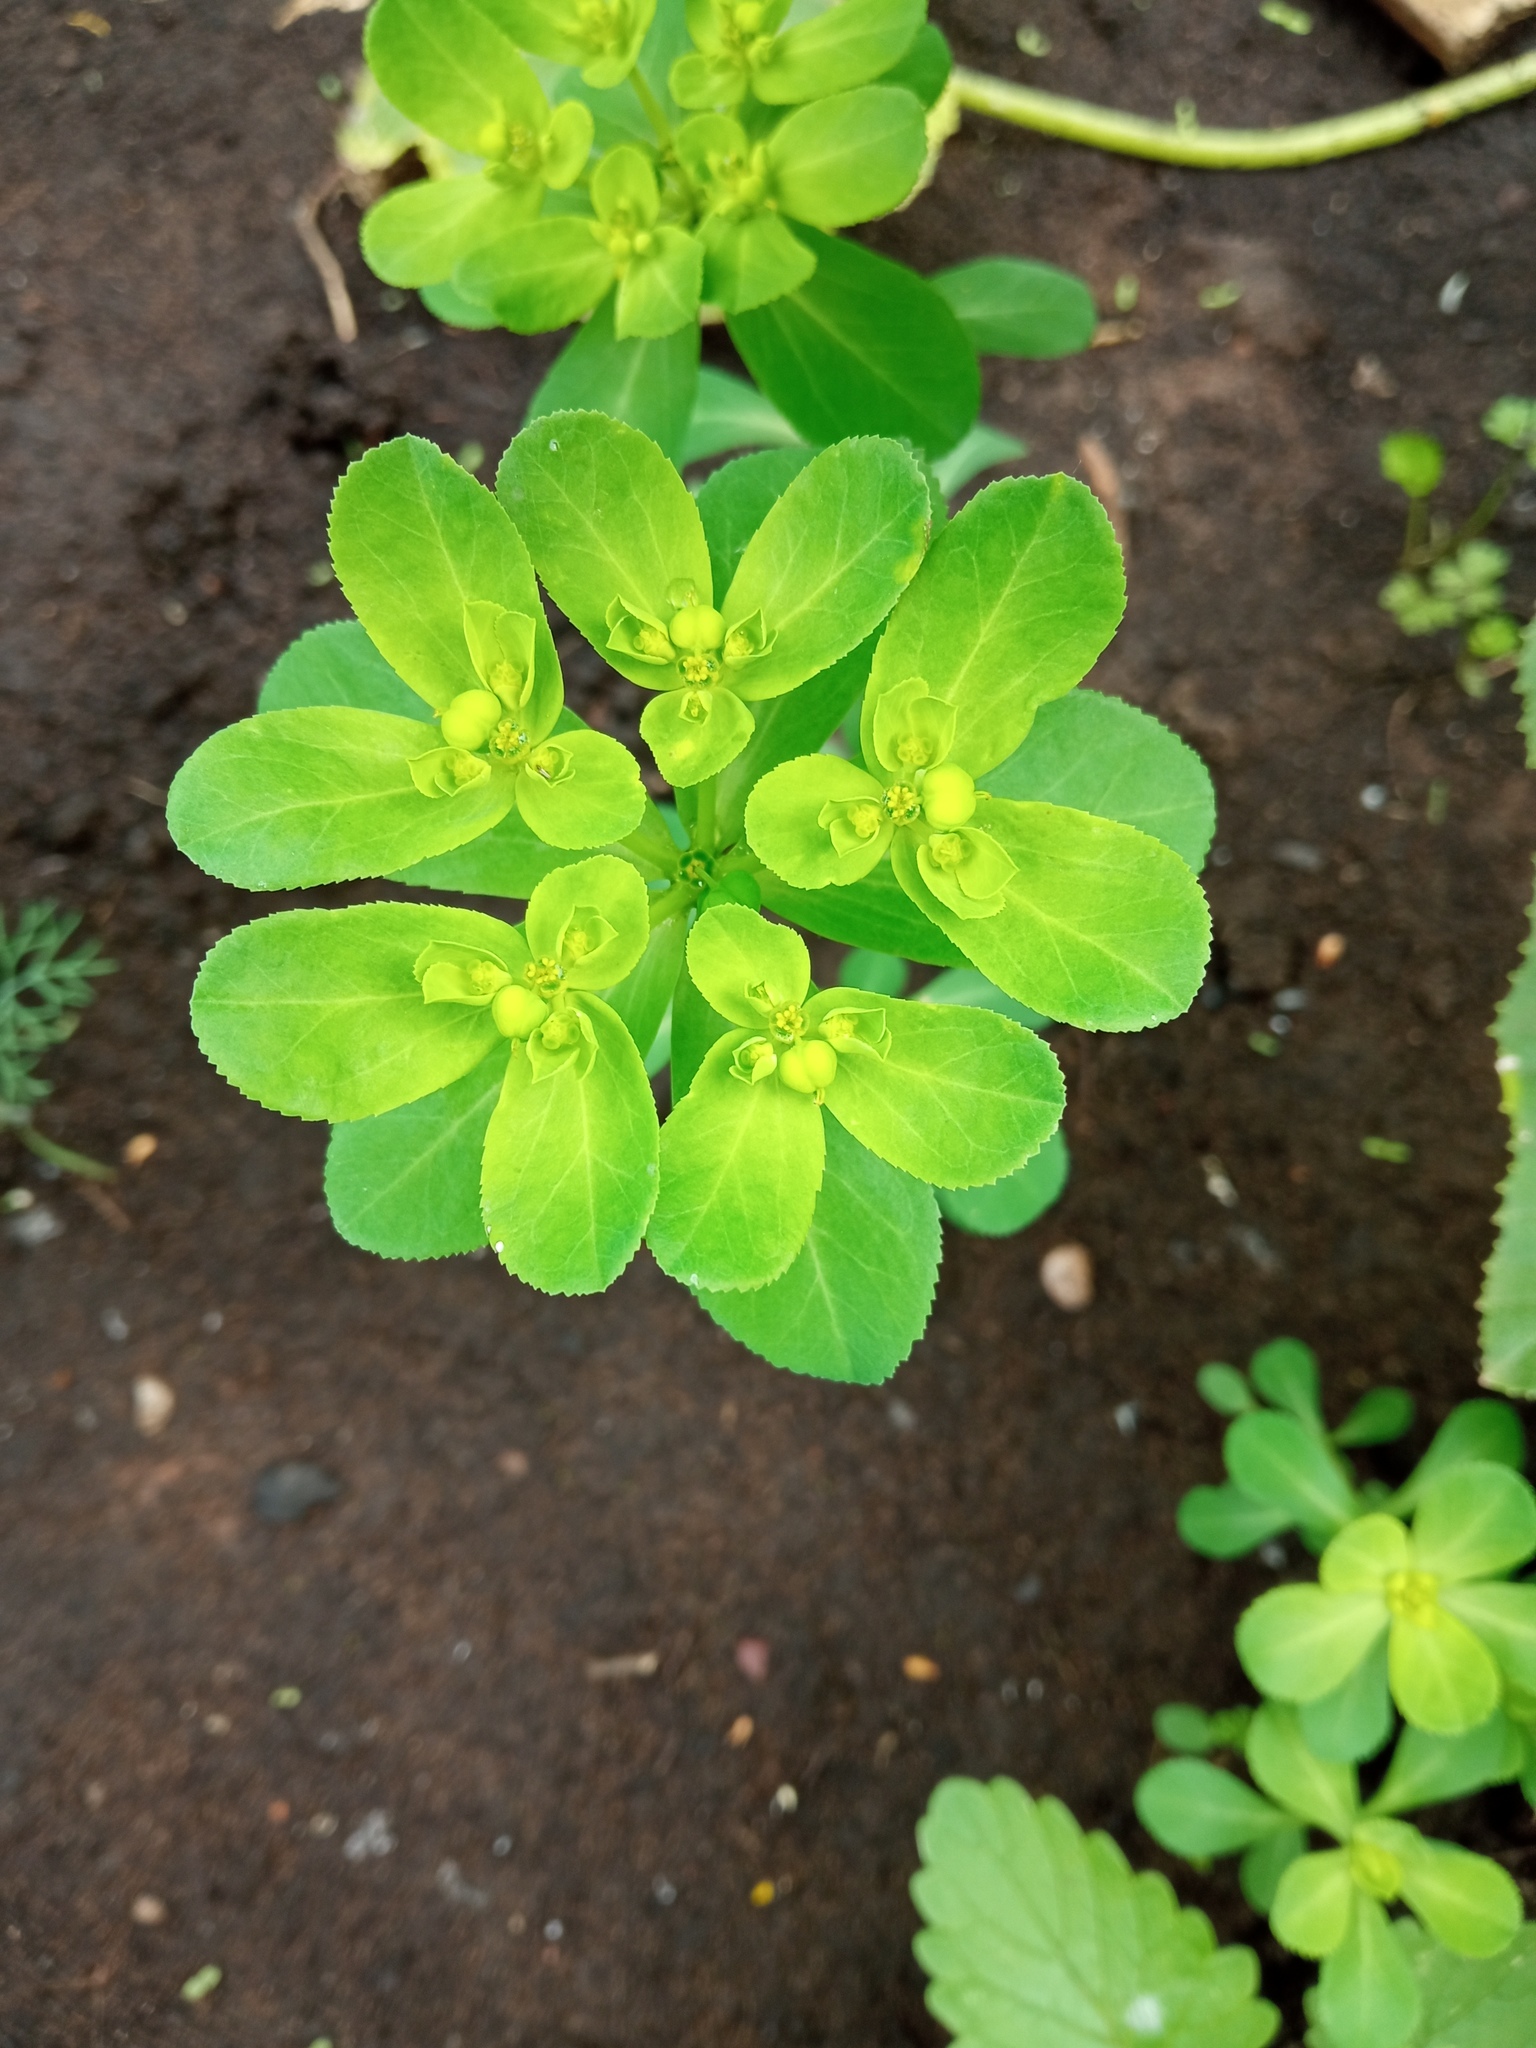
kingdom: Plantae
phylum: Tracheophyta
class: Magnoliopsida
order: Malpighiales
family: Euphorbiaceae
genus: Euphorbia
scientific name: Euphorbia helioscopia
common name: Sun spurge
